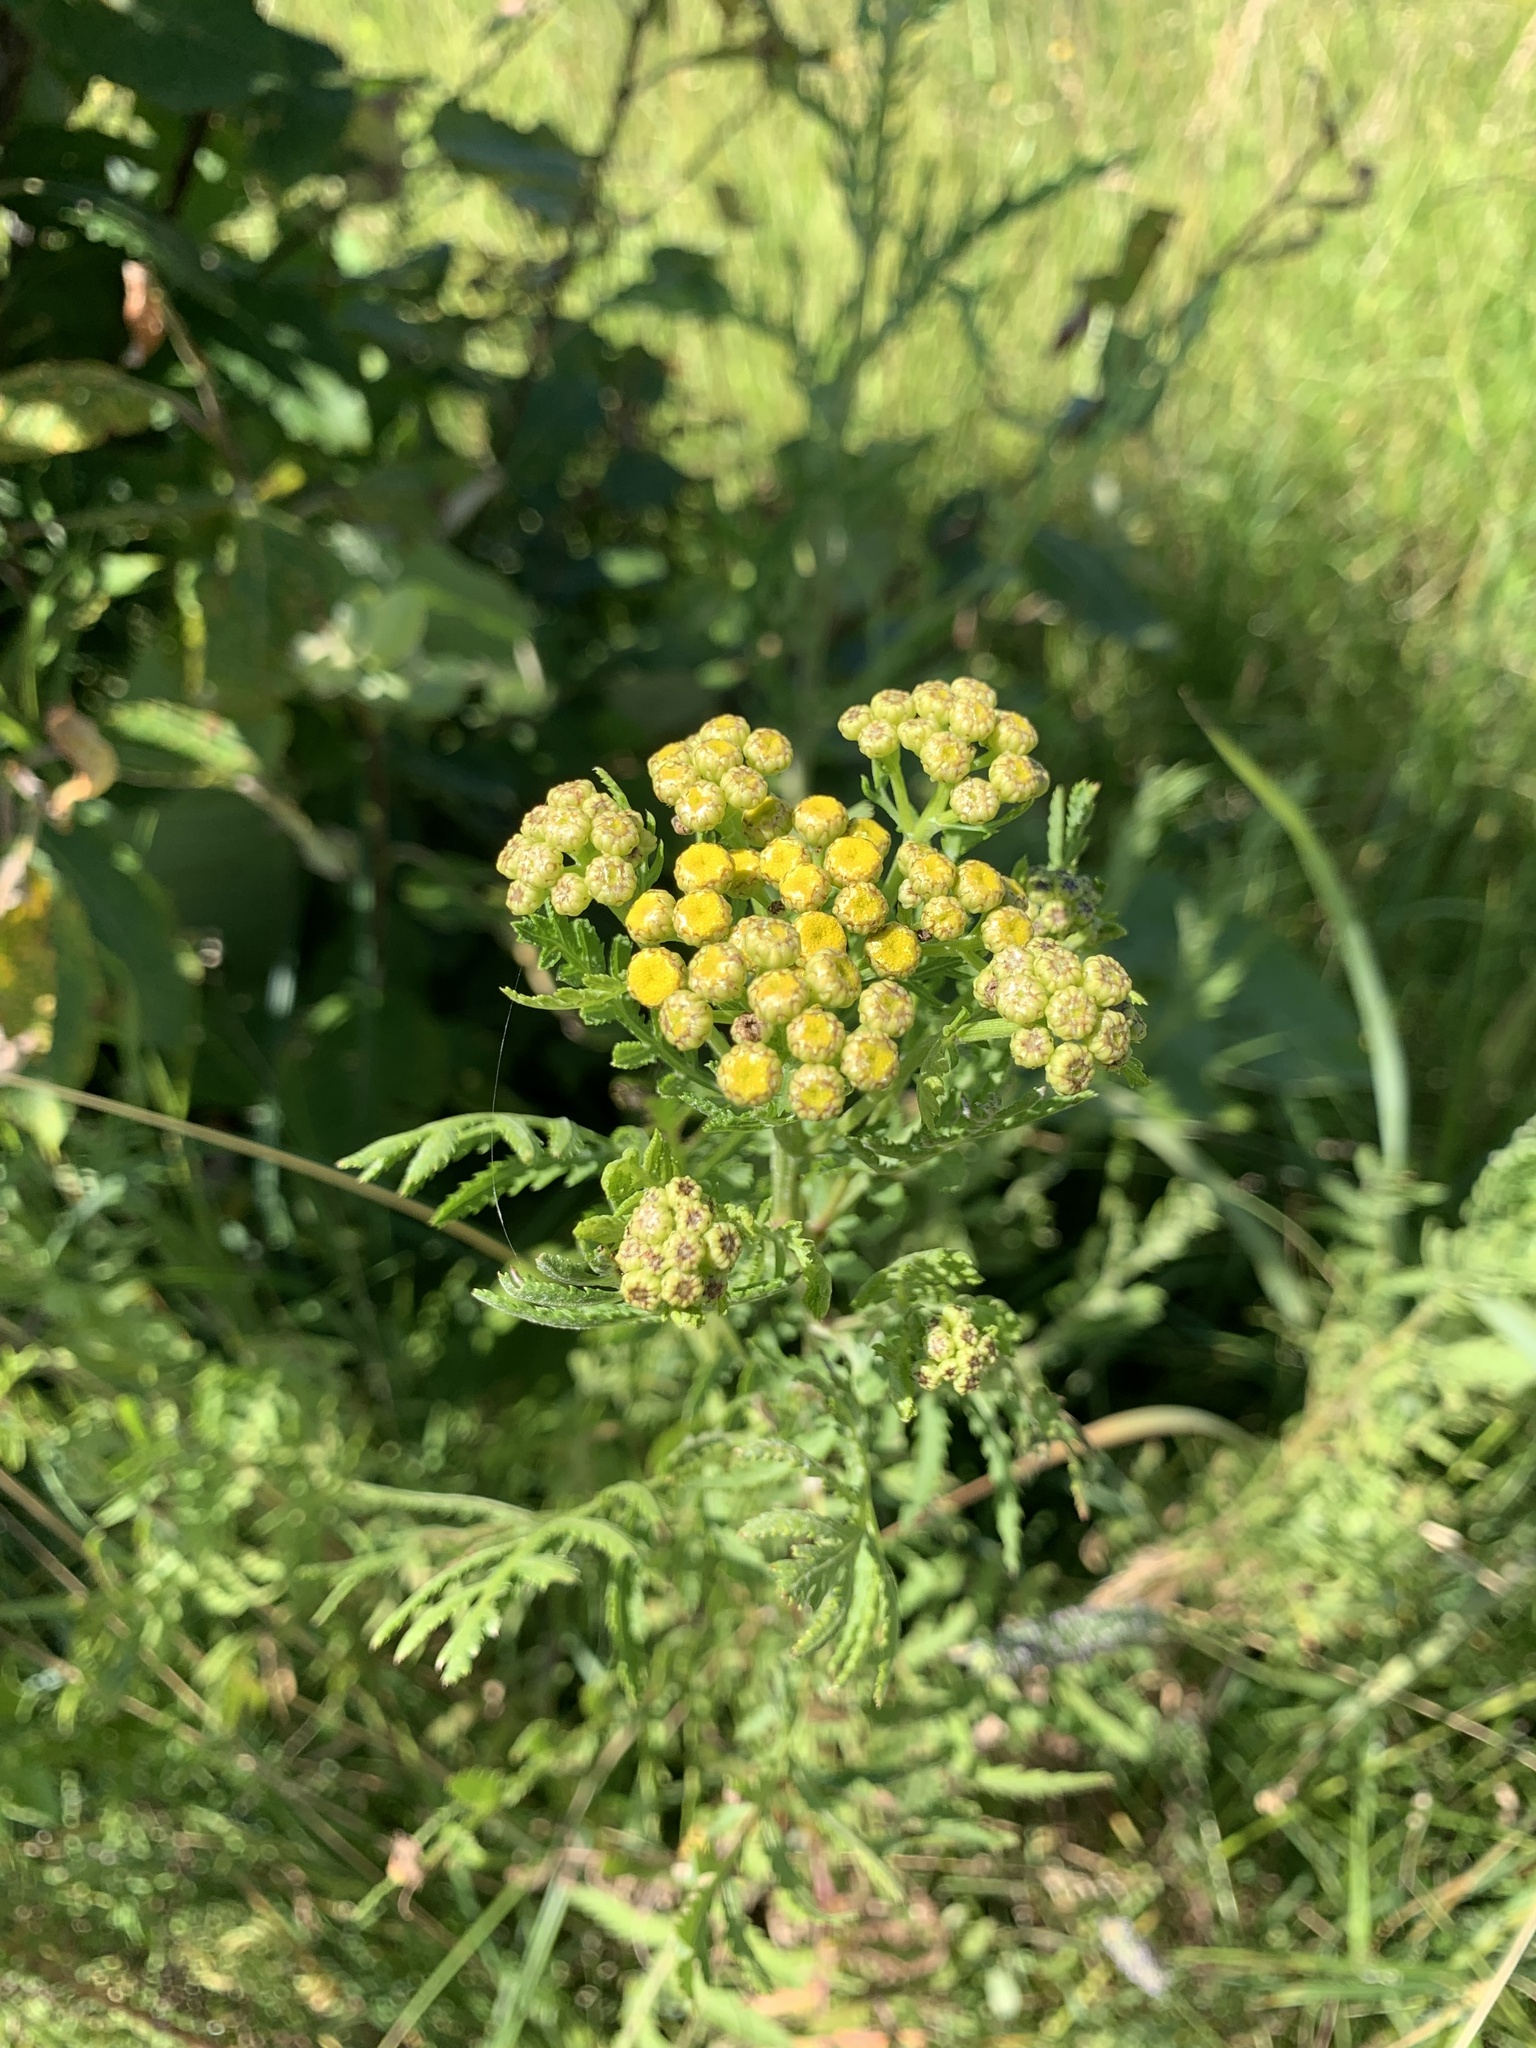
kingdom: Plantae
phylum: Tracheophyta
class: Magnoliopsida
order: Asterales
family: Asteraceae
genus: Tanacetum
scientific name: Tanacetum vulgare
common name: Common tansy
